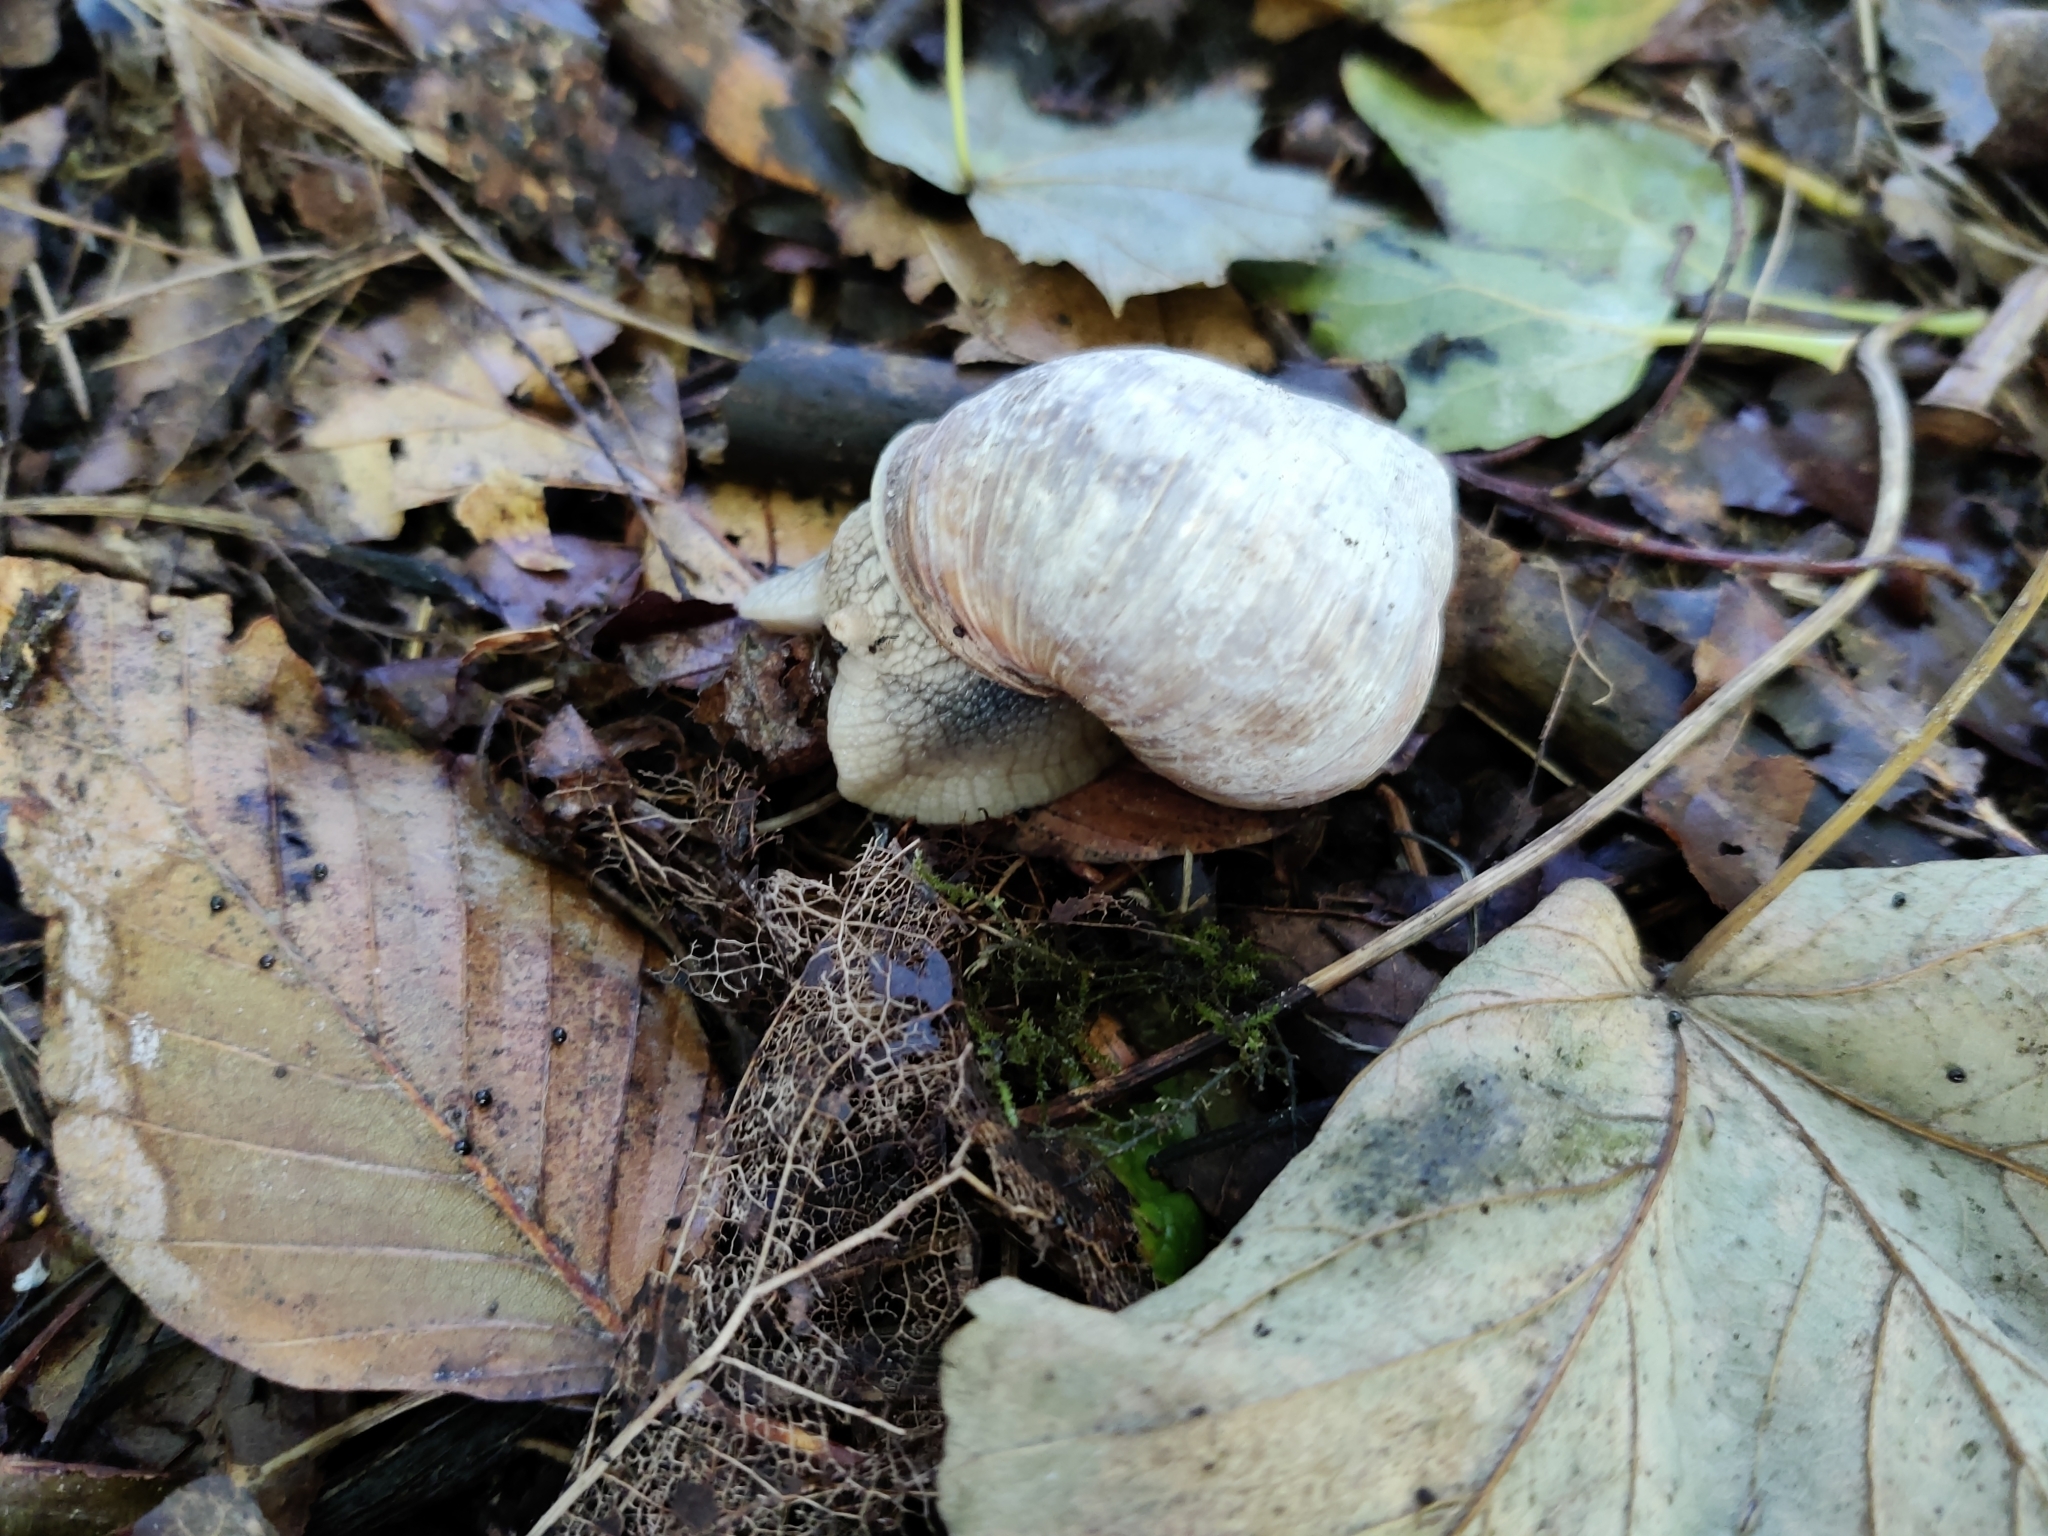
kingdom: Animalia
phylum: Mollusca
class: Gastropoda
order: Stylommatophora
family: Helicidae
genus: Helix
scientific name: Helix pomatia
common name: Roman snail
